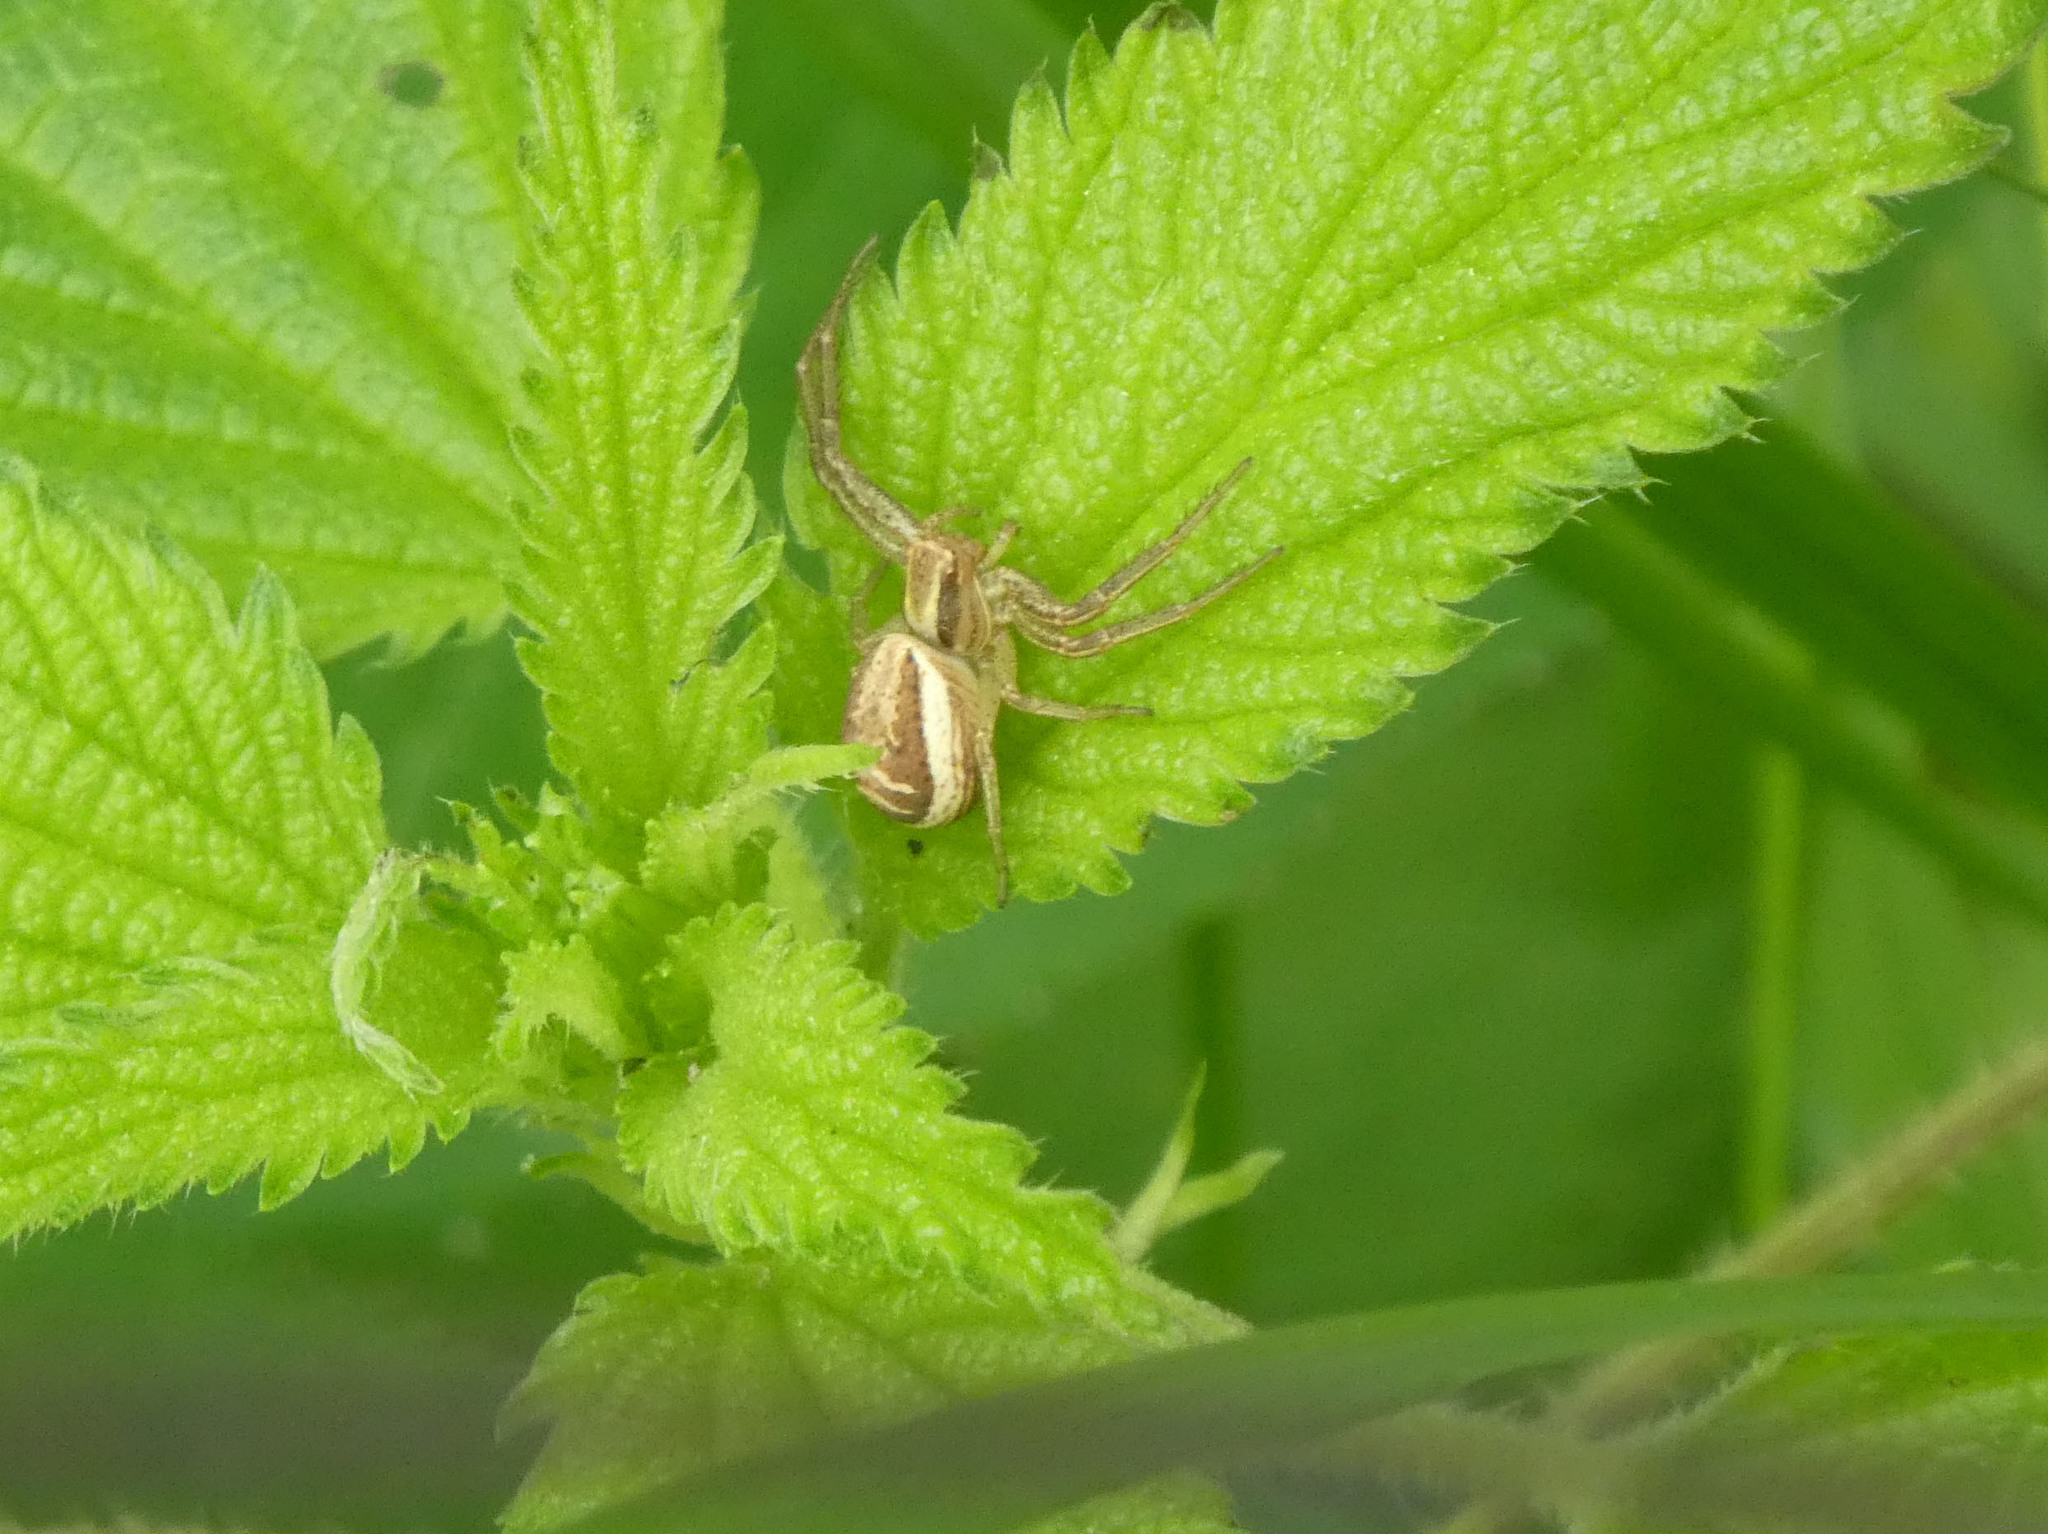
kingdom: Animalia
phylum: Arthropoda
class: Arachnida
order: Araneae
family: Thomisidae
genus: Xysticus
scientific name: Xysticus ulmi
